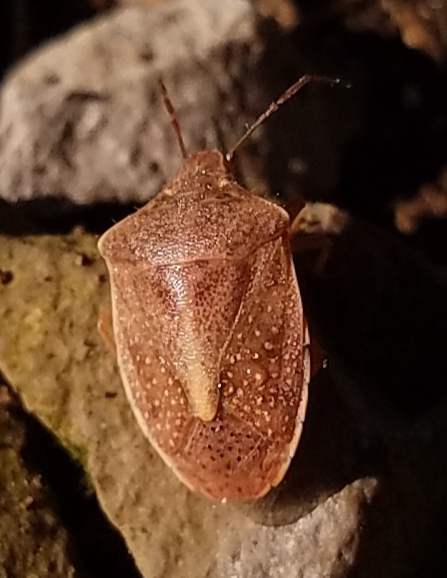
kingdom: Animalia
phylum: Arthropoda
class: Insecta
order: Hemiptera
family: Pentatomidae
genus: Thyanta
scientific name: Thyanta accerra
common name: Stink bug
